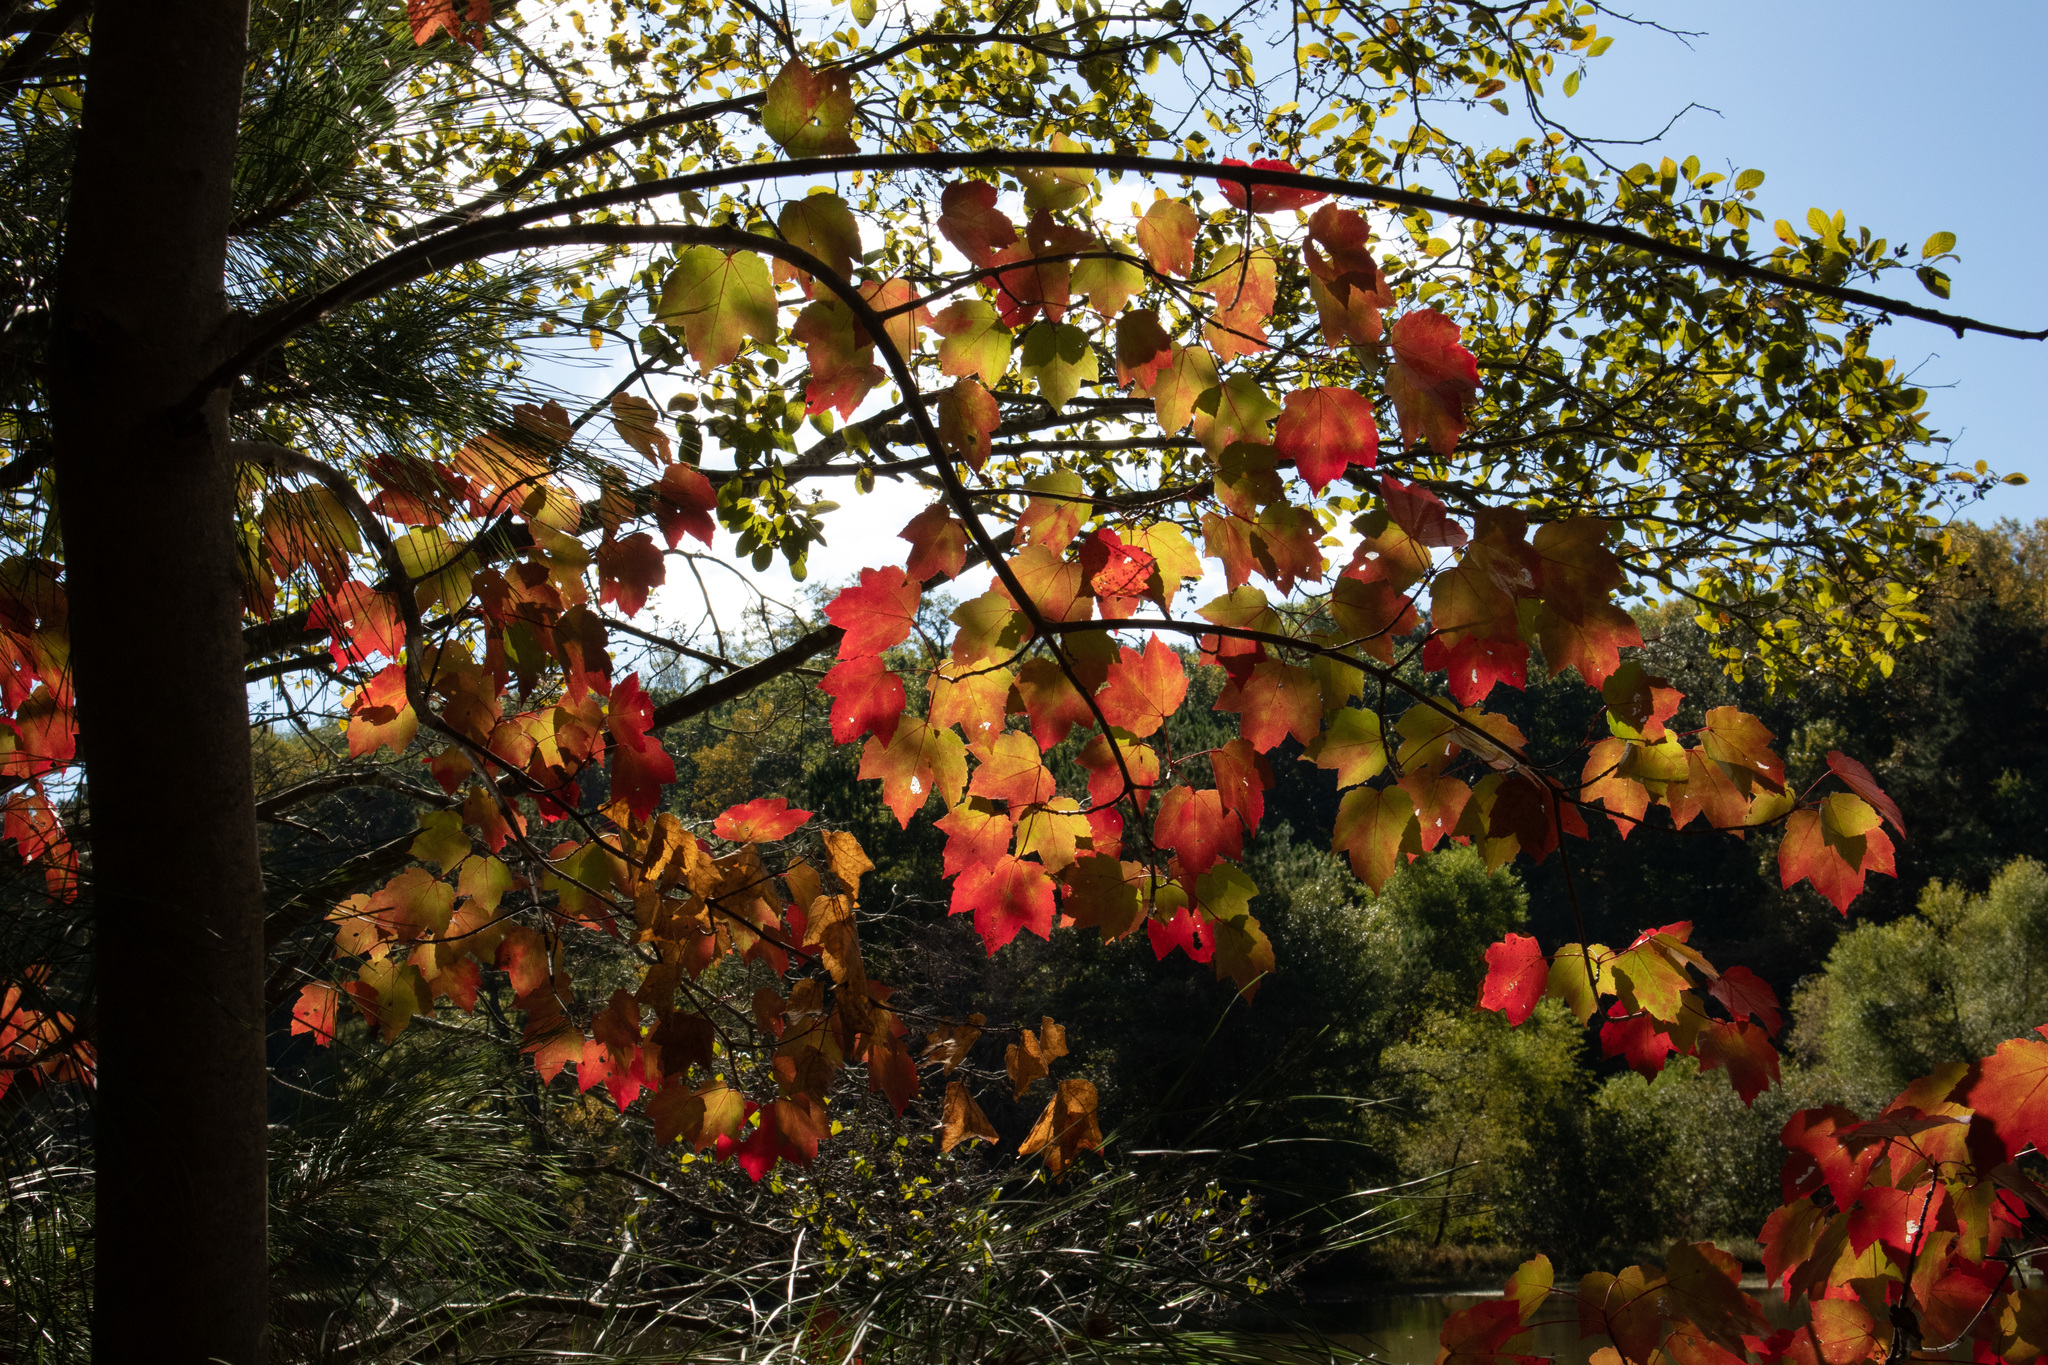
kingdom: Plantae
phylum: Tracheophyta
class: Magnoliopsida
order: Sapindales
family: Sapindaceae
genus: Acer
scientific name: Acer rubrum
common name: Red maple
